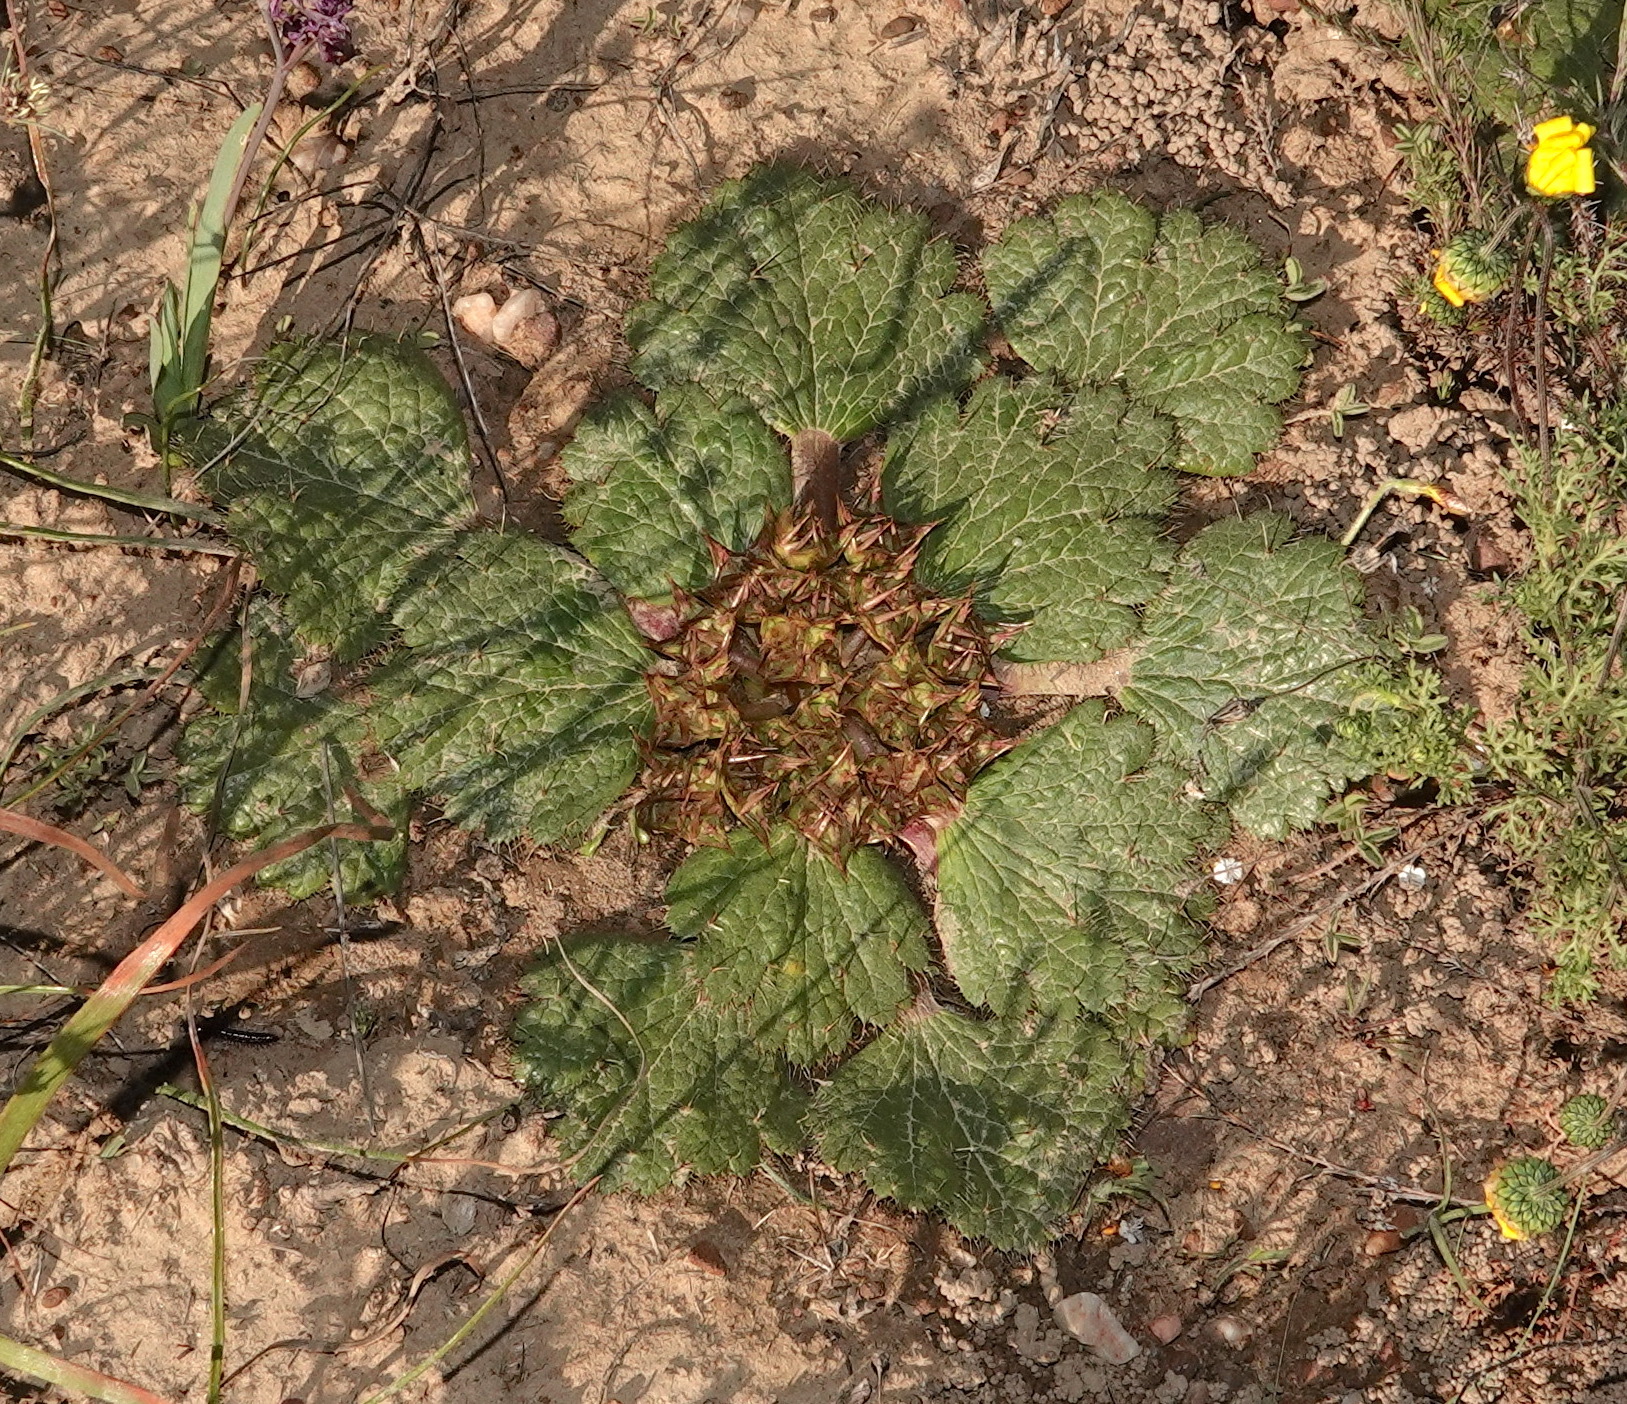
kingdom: Plantae
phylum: Tracheophyta
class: Magnoliopsida
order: Apiales
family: Apiaceae
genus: Arctopus
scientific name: Arctopus echinatus
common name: Platdoring
